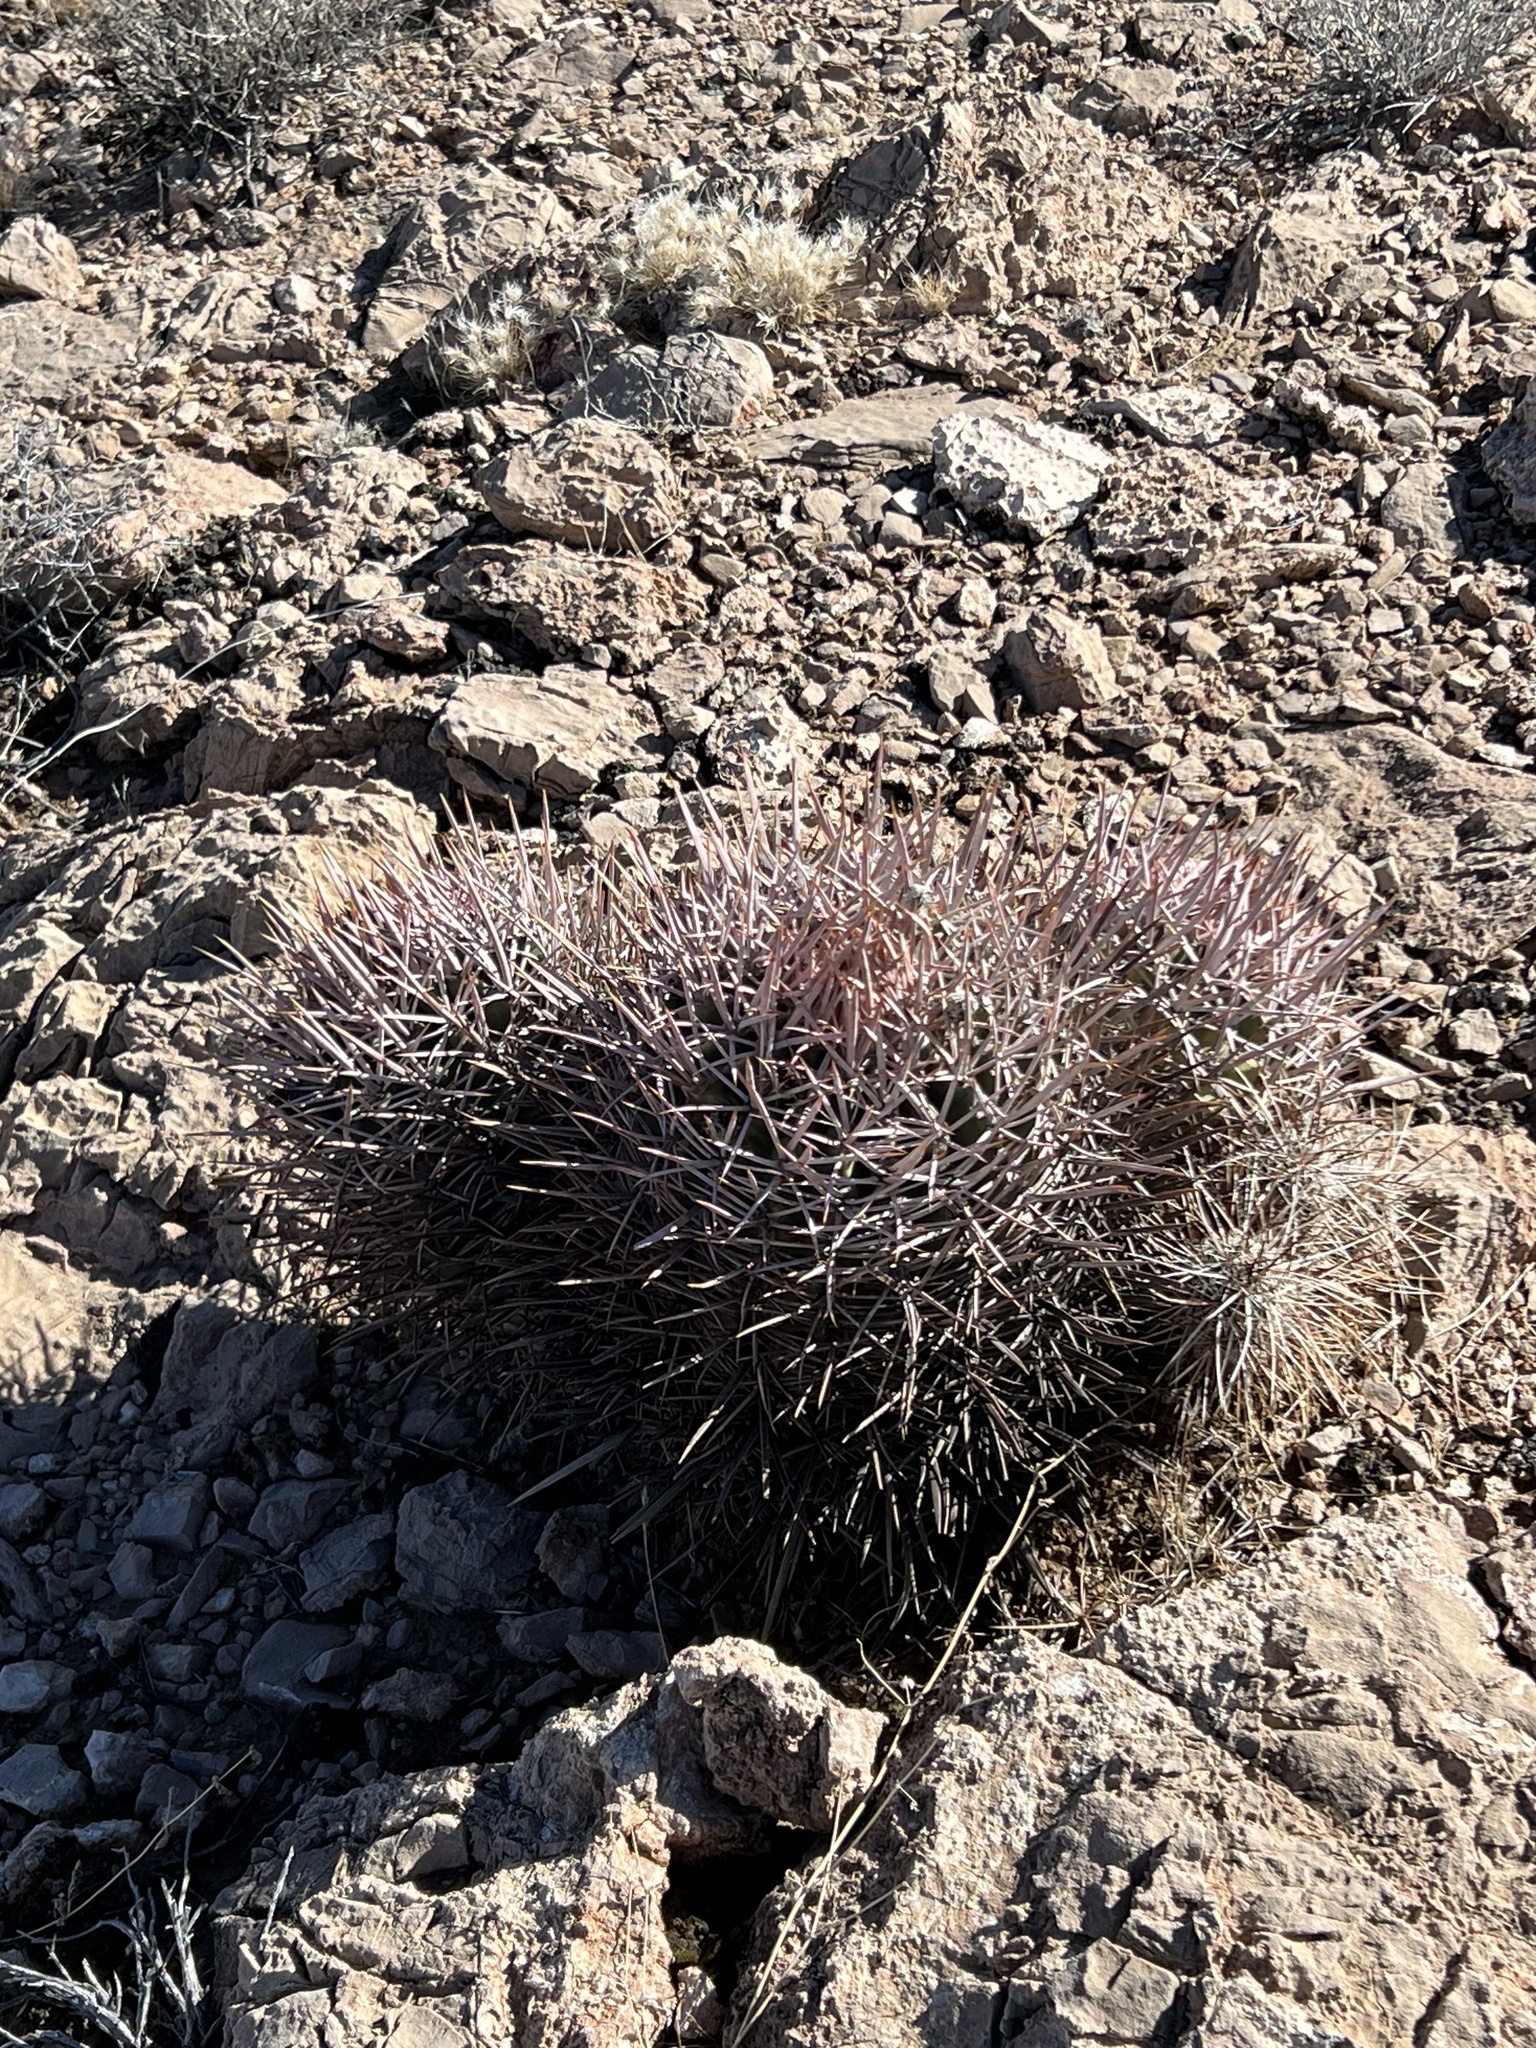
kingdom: Plantae
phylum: Tracheophyta
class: Magnoliopsida
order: Caryophyllales
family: Cactaceae
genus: Echinocactus
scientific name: Echinocactus polycephalus
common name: Cottontop cactus
